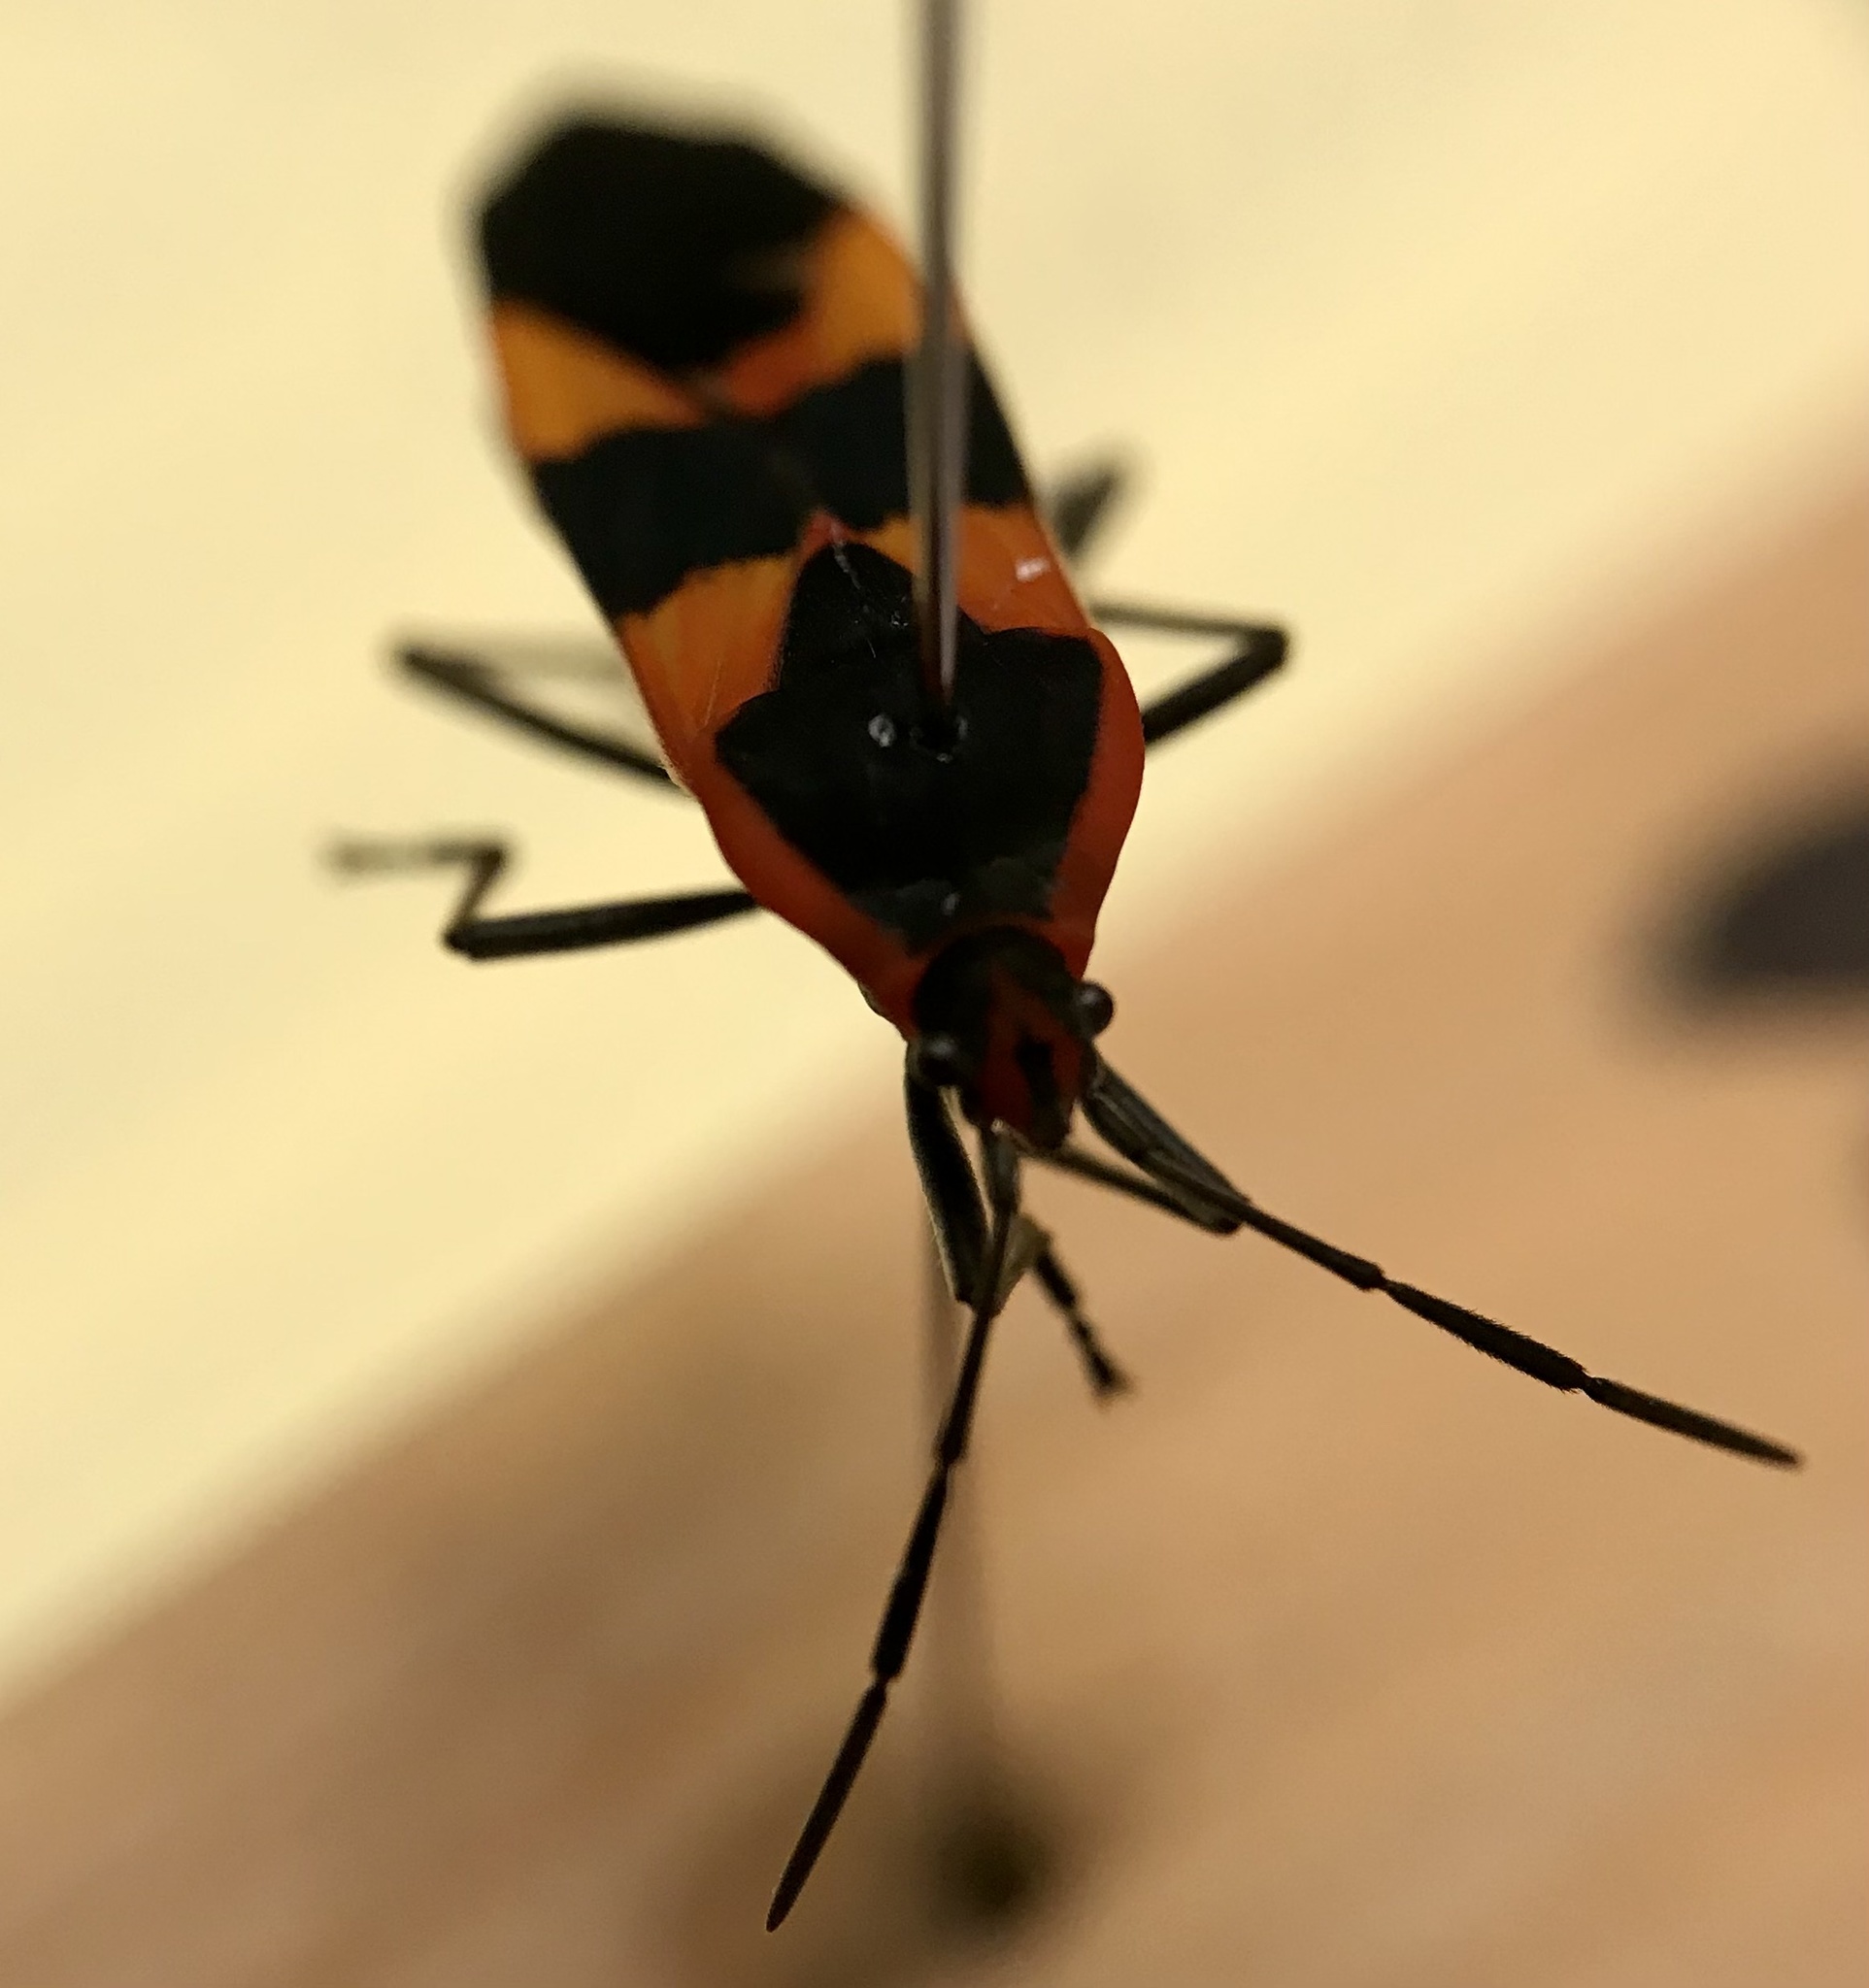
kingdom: Animalia
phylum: Arthropoda
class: Insecta
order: Hemiptera
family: Lygaeidae
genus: Oncopeltus
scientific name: Oncopeltus fasciatus
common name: Large milkweed bug
